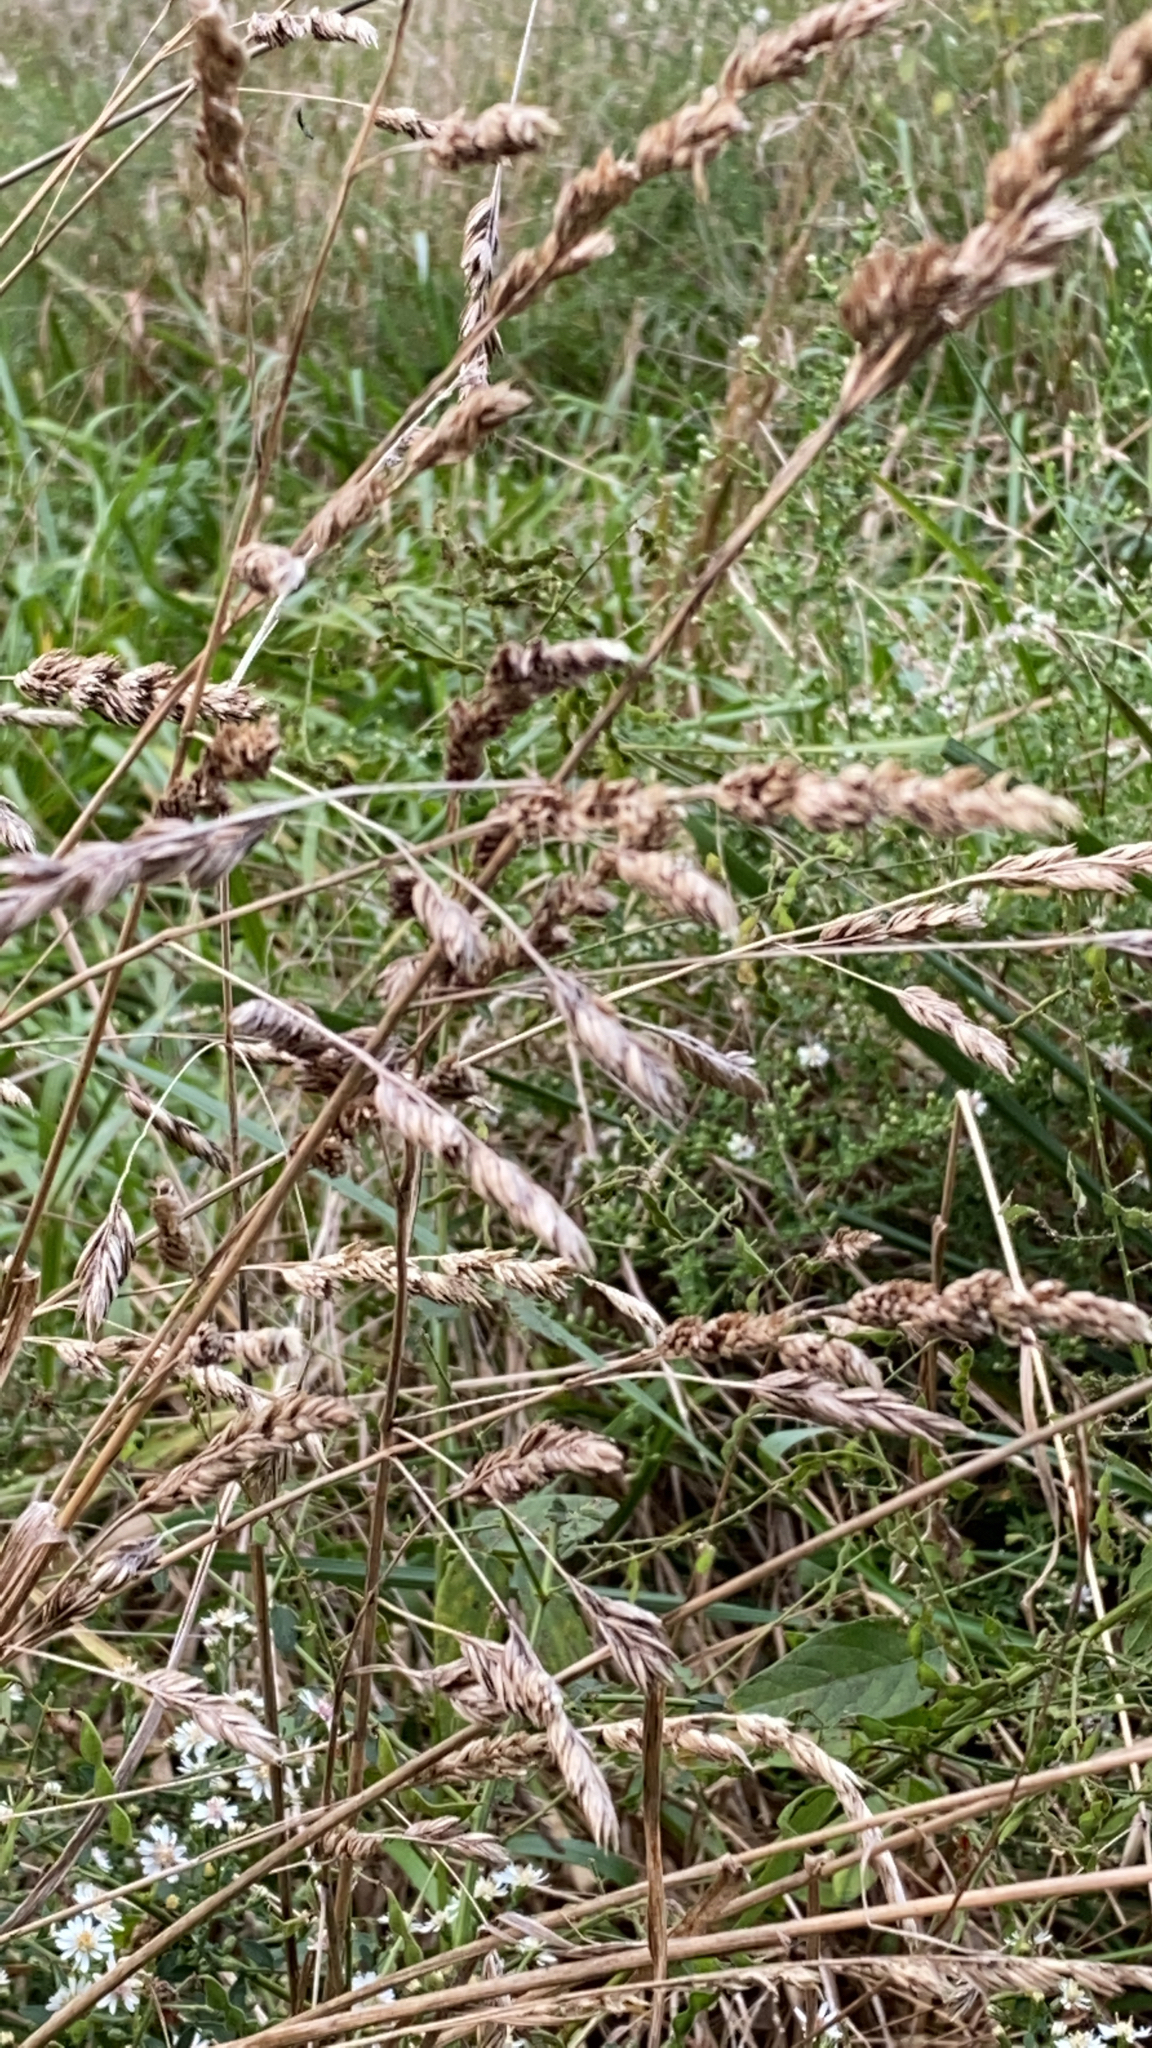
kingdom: Plantae
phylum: Tracheophyta
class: Liliopsida
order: Poales
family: Poaceae
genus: Dactylis
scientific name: Dactylis glomerata
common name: Orchardgrass
